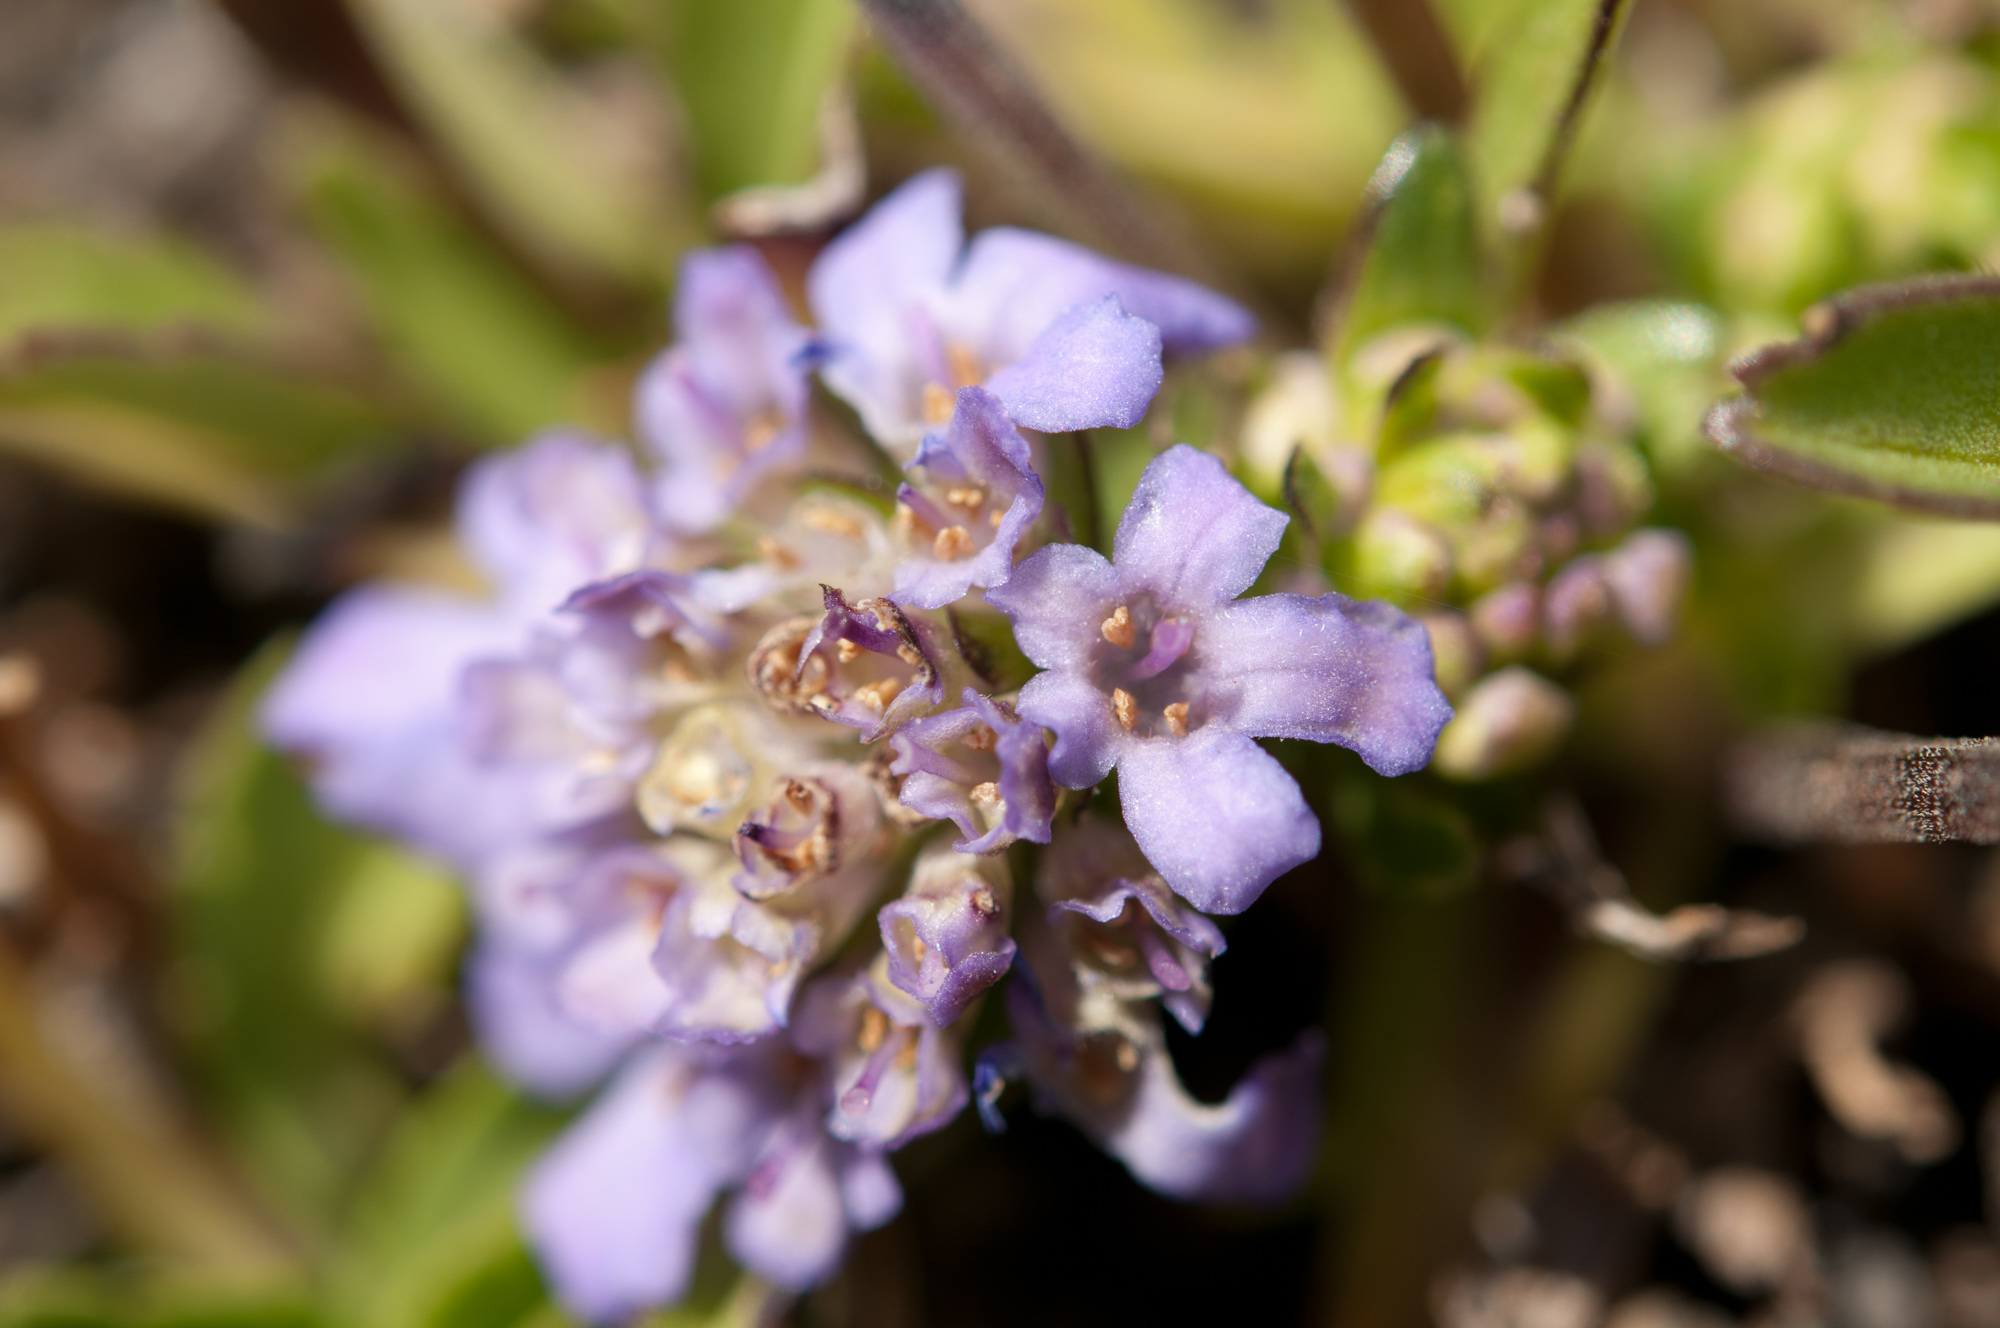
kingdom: Plantae
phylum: Tracheophyta
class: Magnoliopsida
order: Dipsacales
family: Caprifoliaceae
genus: Scabiosa
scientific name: Scabiosa lacerifolia
